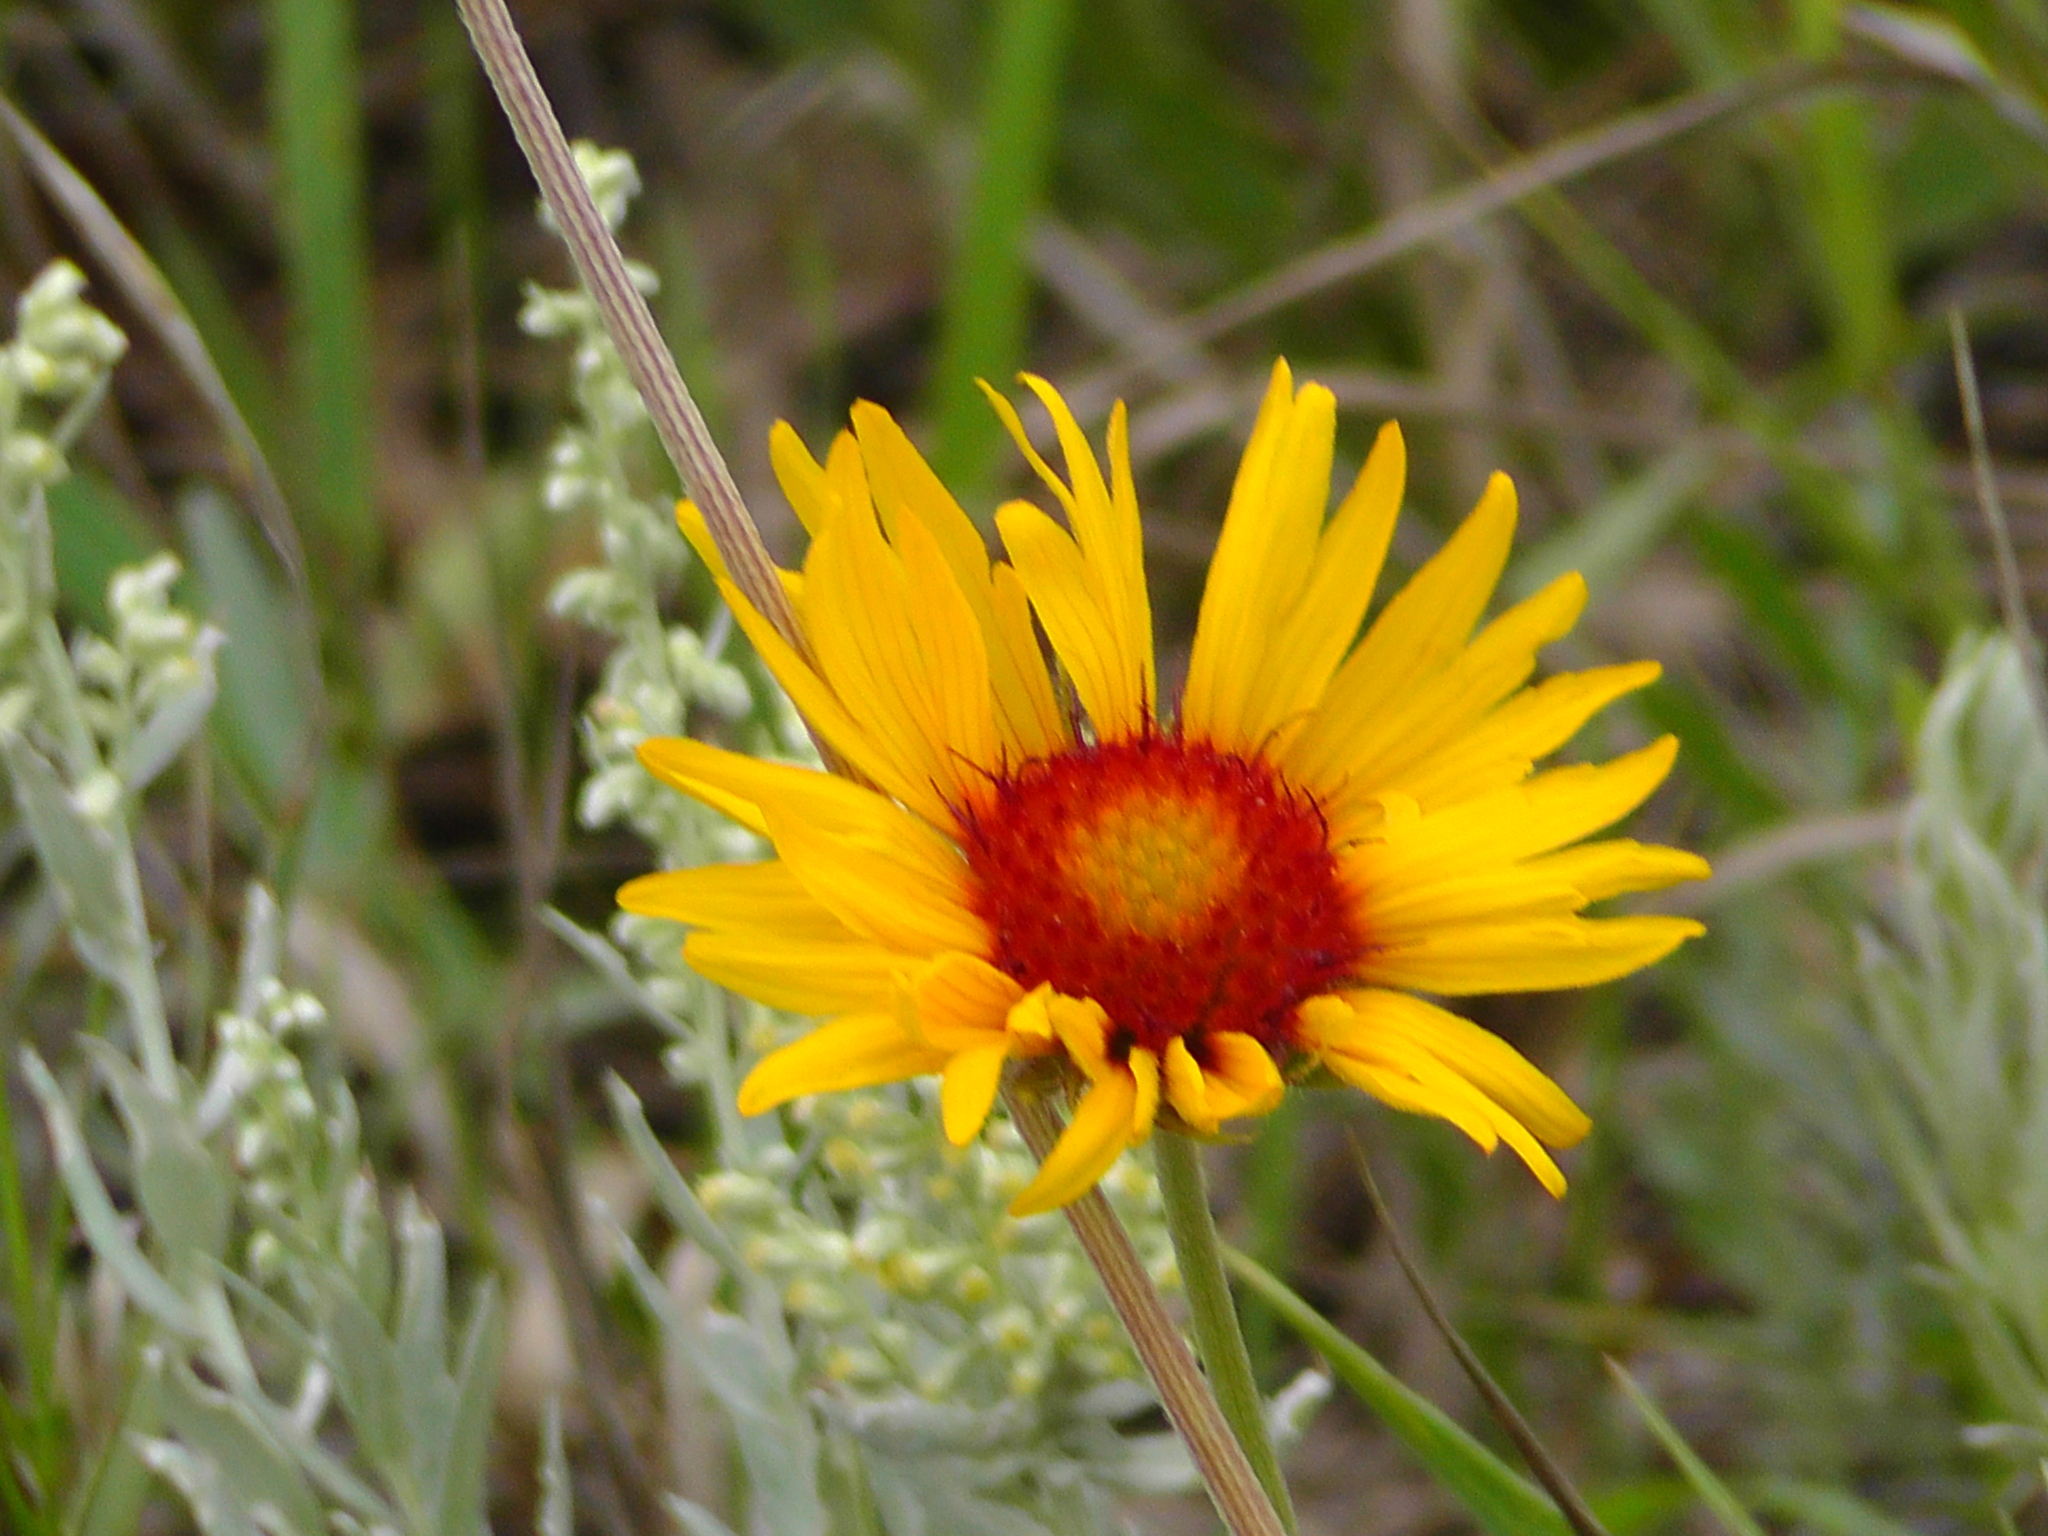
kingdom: Plantae
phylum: Tracheophyta
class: Magnoliopsida
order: Asterales
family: Asteraceae
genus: Gaillardia
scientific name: Gaillardia aristata
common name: Blanket-flower
